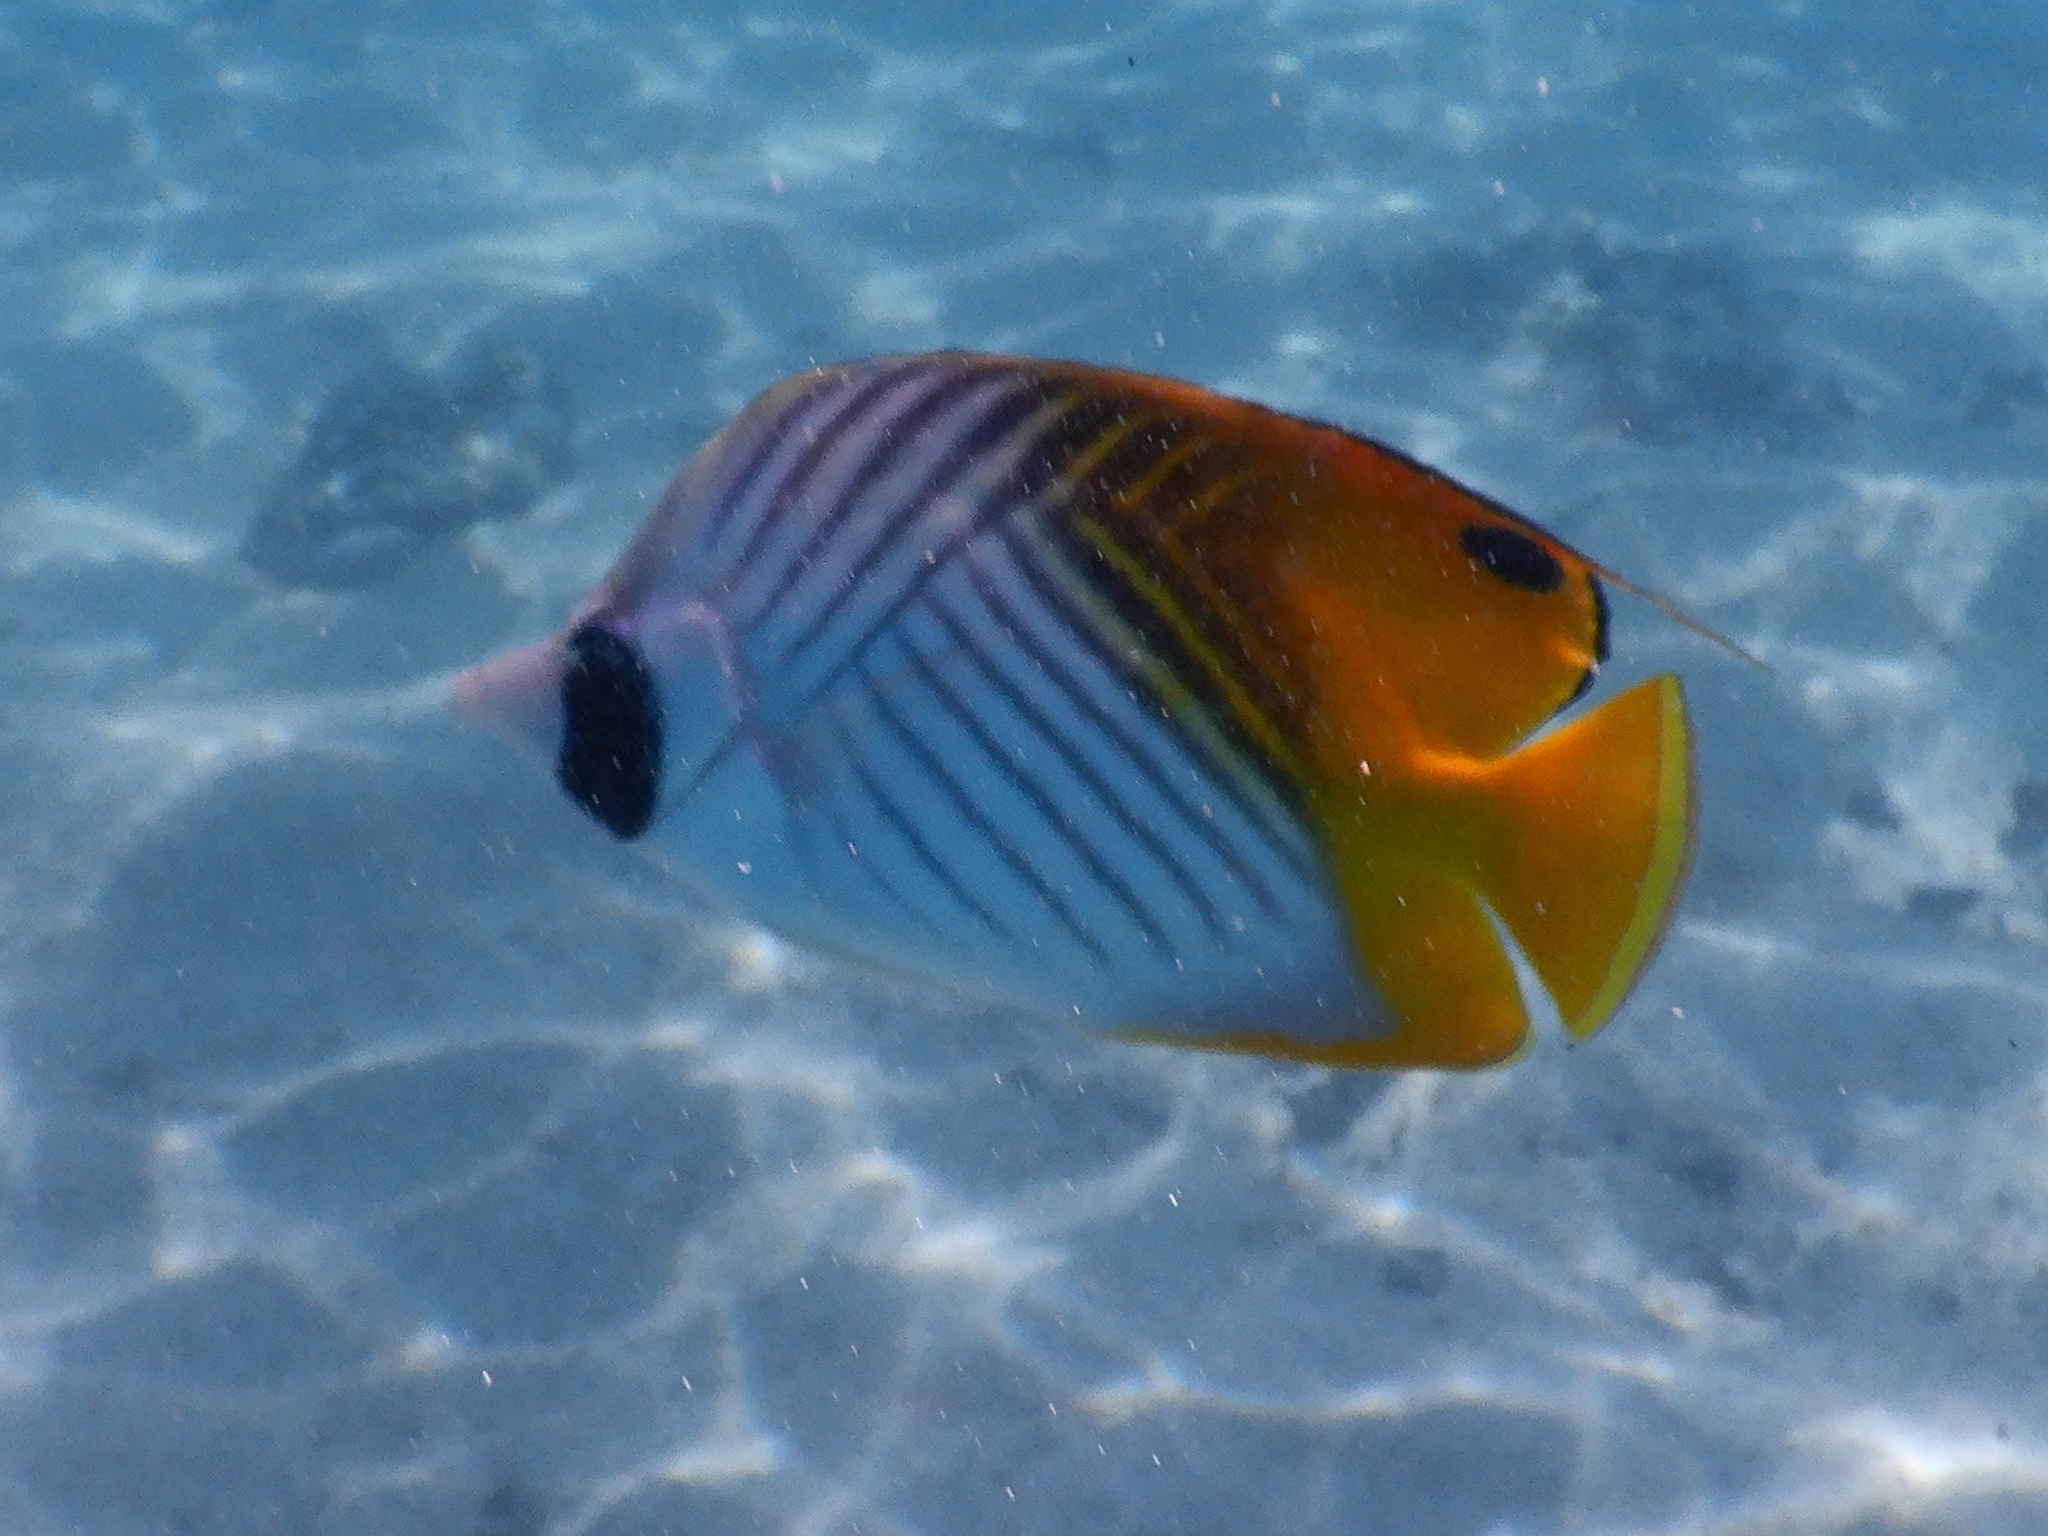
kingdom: Animalia
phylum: Chordata
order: Perciformes
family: Chaetodontidae
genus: Chaetodon
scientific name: Chaetodon auriga
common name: Threadfin butterflyfish
